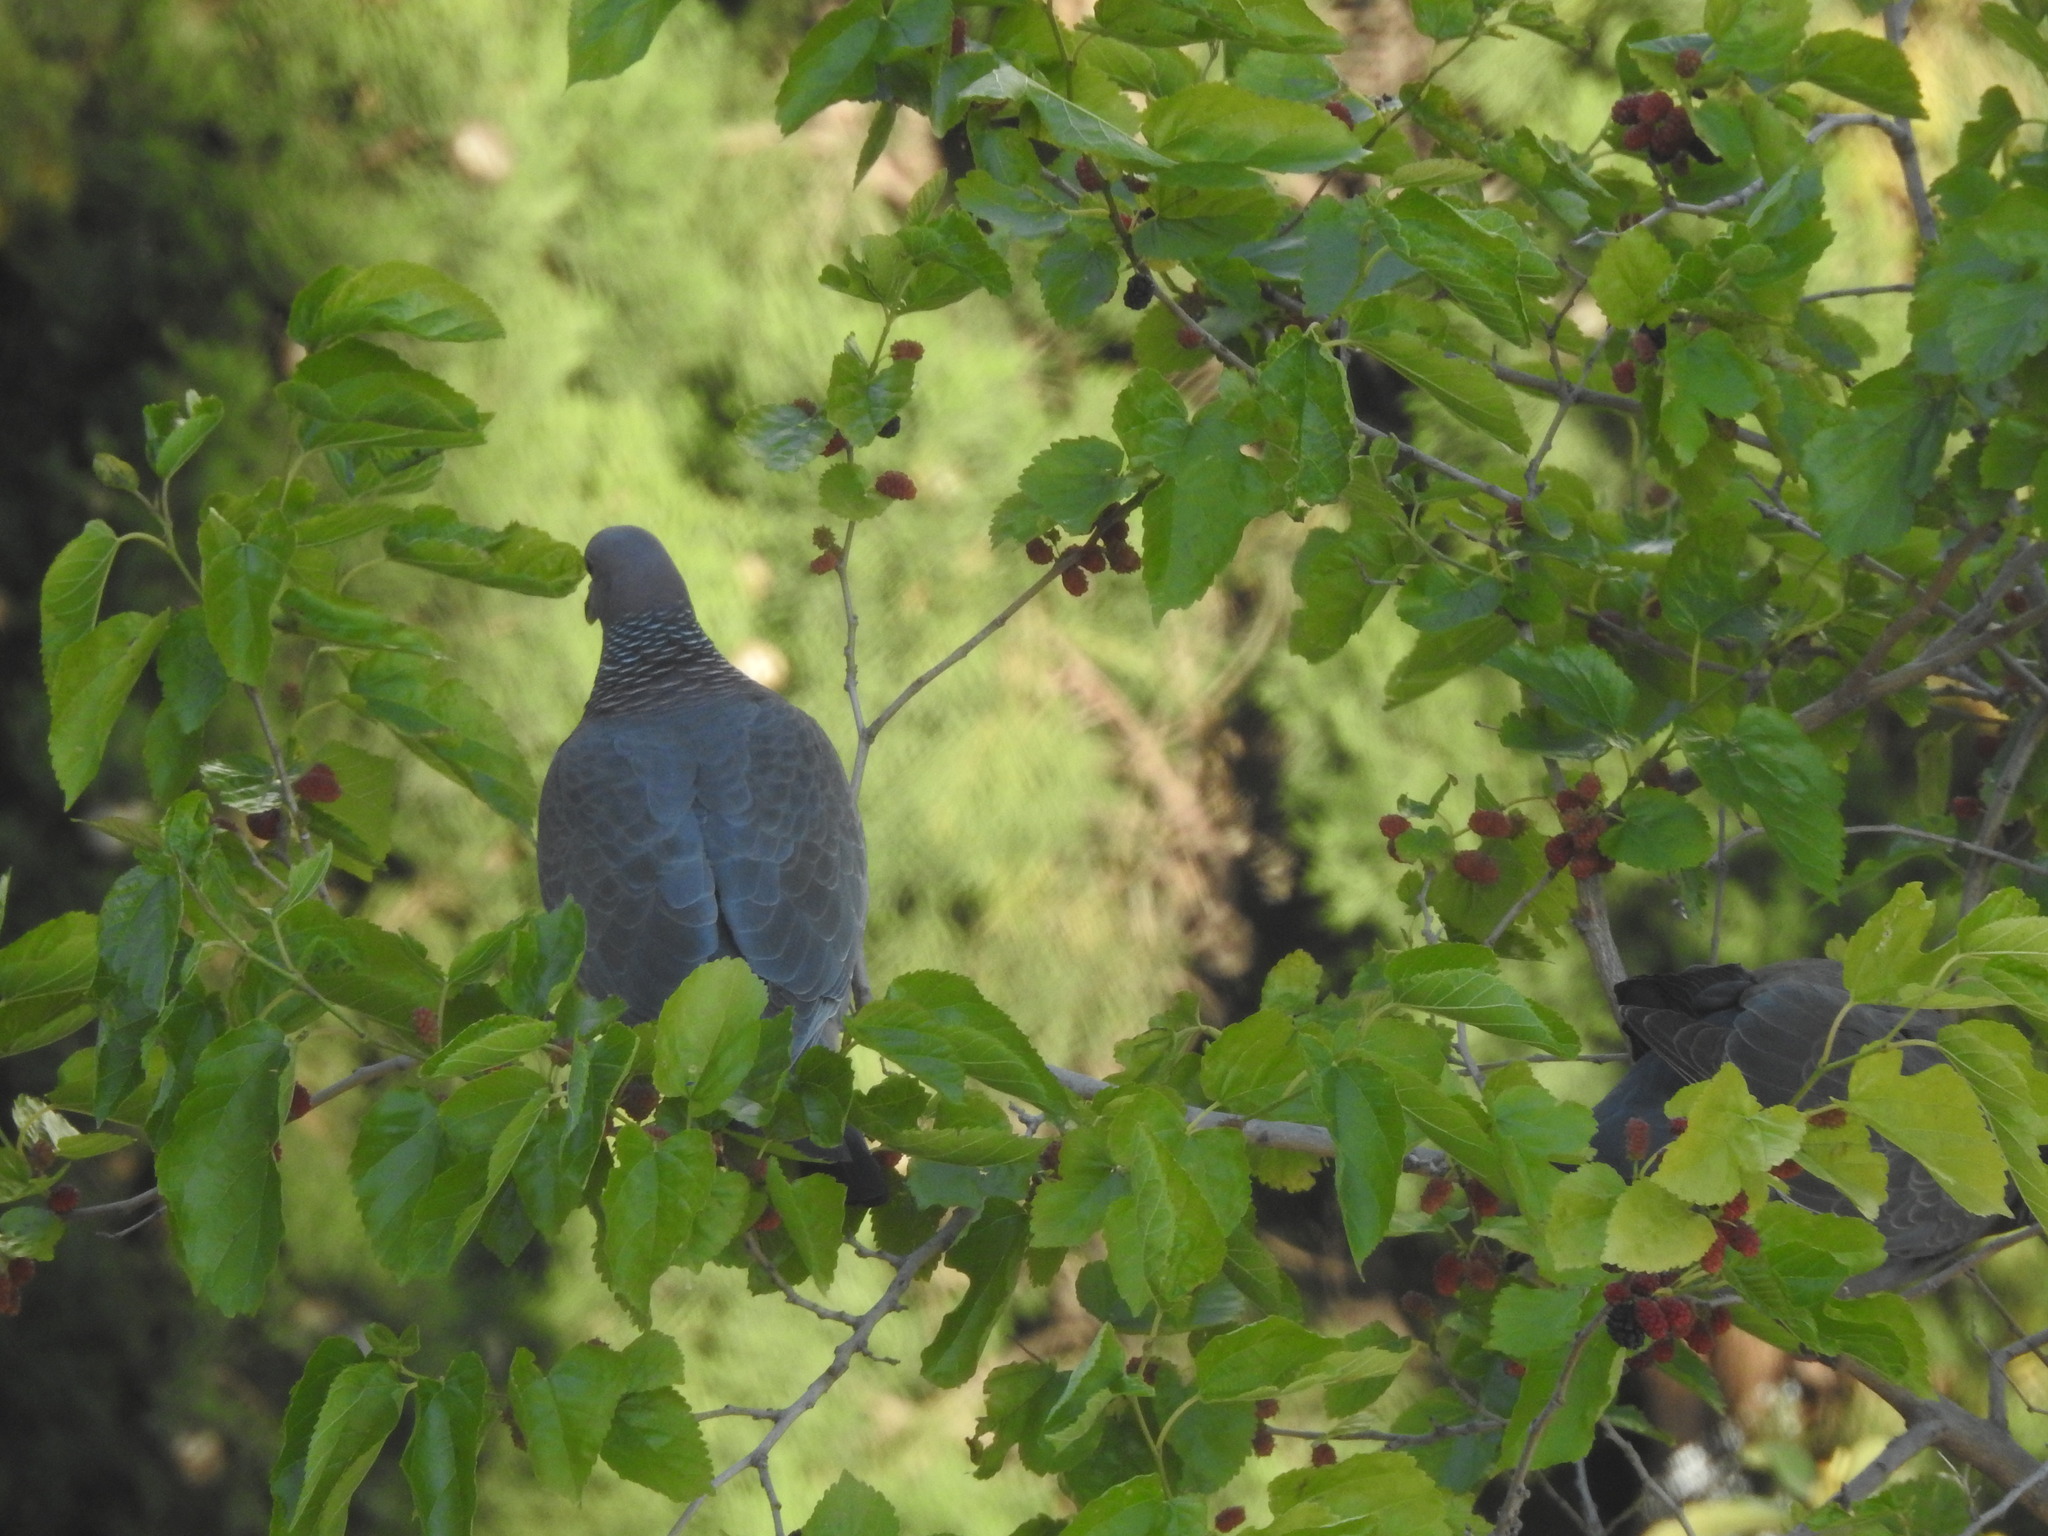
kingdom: Animalia
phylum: Chordata
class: Aves
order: Columbiformes
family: Columbidae
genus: Patagioenas
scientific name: Patagioenas picazuro
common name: Picazuro pigeon
